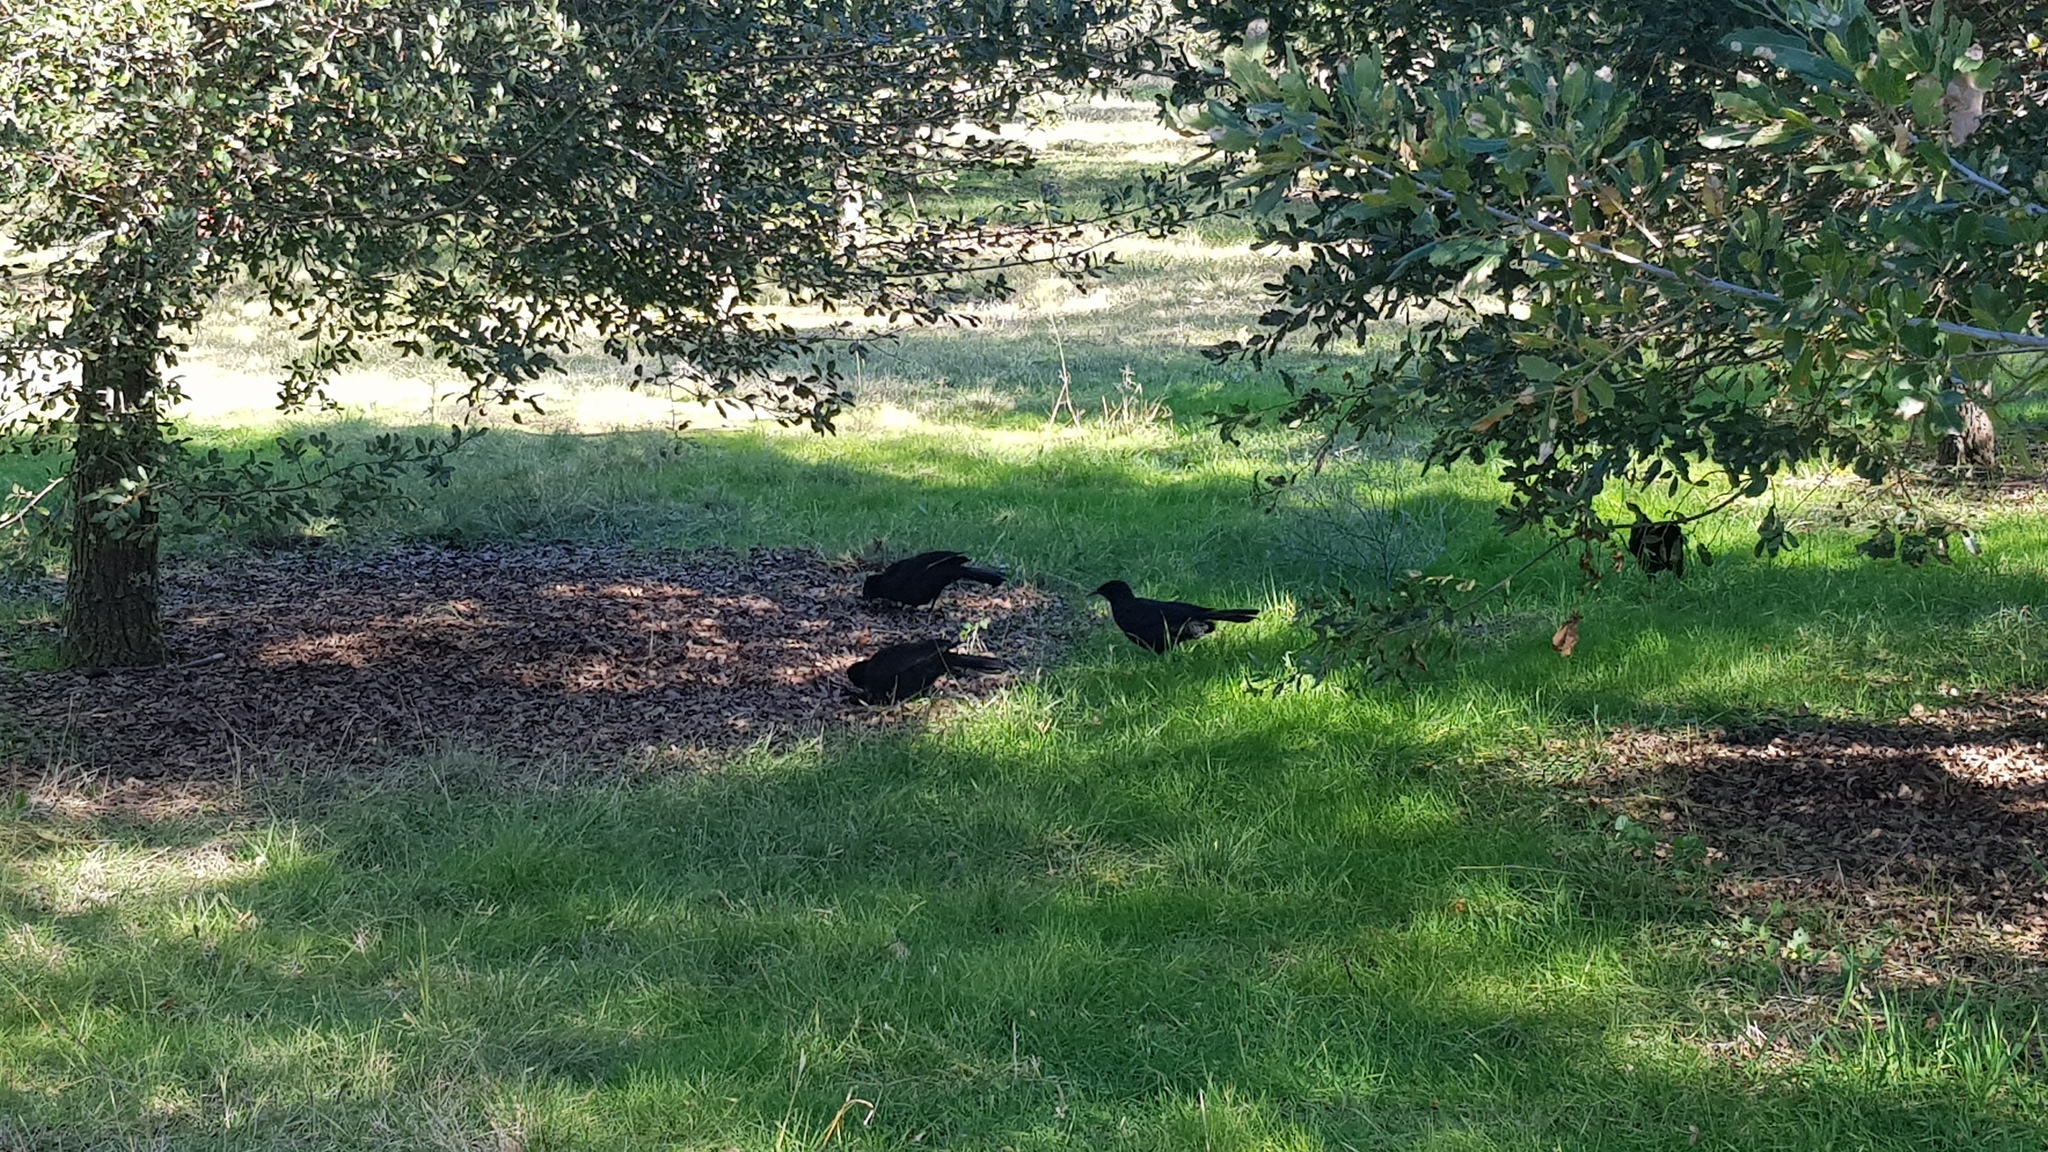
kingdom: Animalia
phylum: Chordata
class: Aves
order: Passeriformes
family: Corcoracidae
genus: Corcorax
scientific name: Corcorax melanoramphos
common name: White-winged chough
